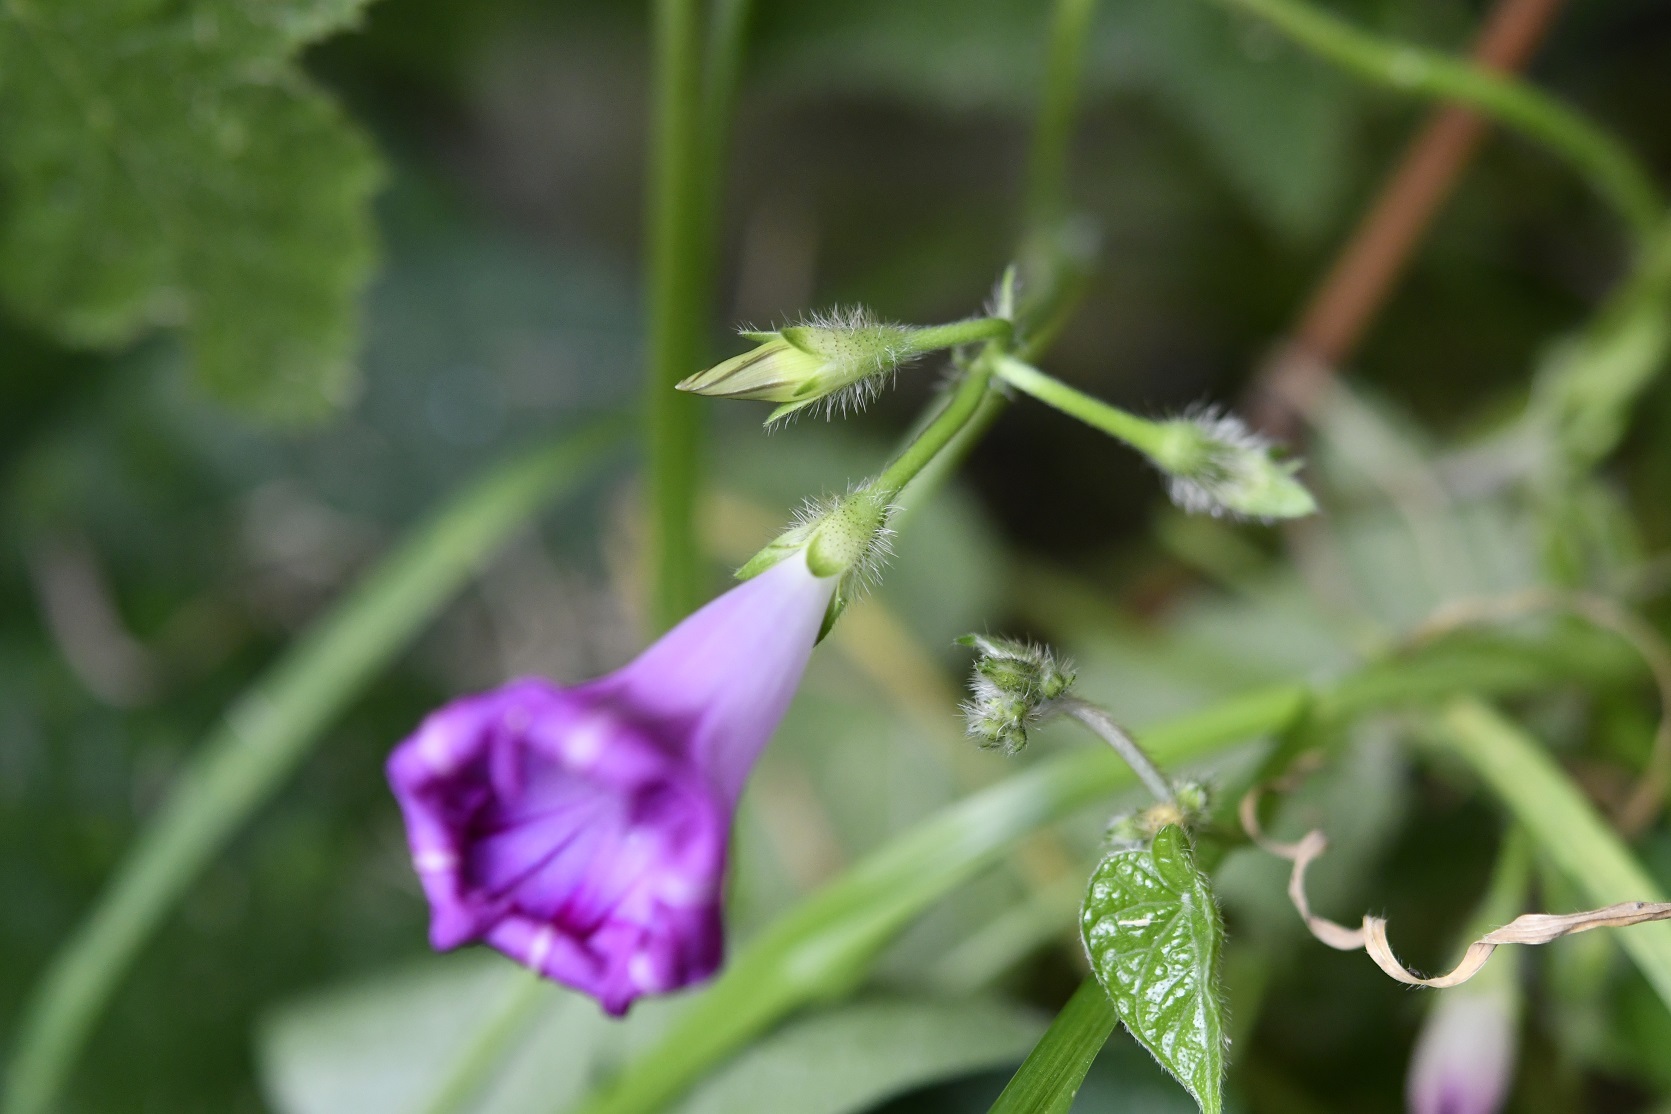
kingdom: Plantae
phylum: Tracheophyta
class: Magnoliopsida
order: Solanales
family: Convolvulaceae
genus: Ipomoea
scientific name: Ipomoea purpurea
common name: Common morning-glory
